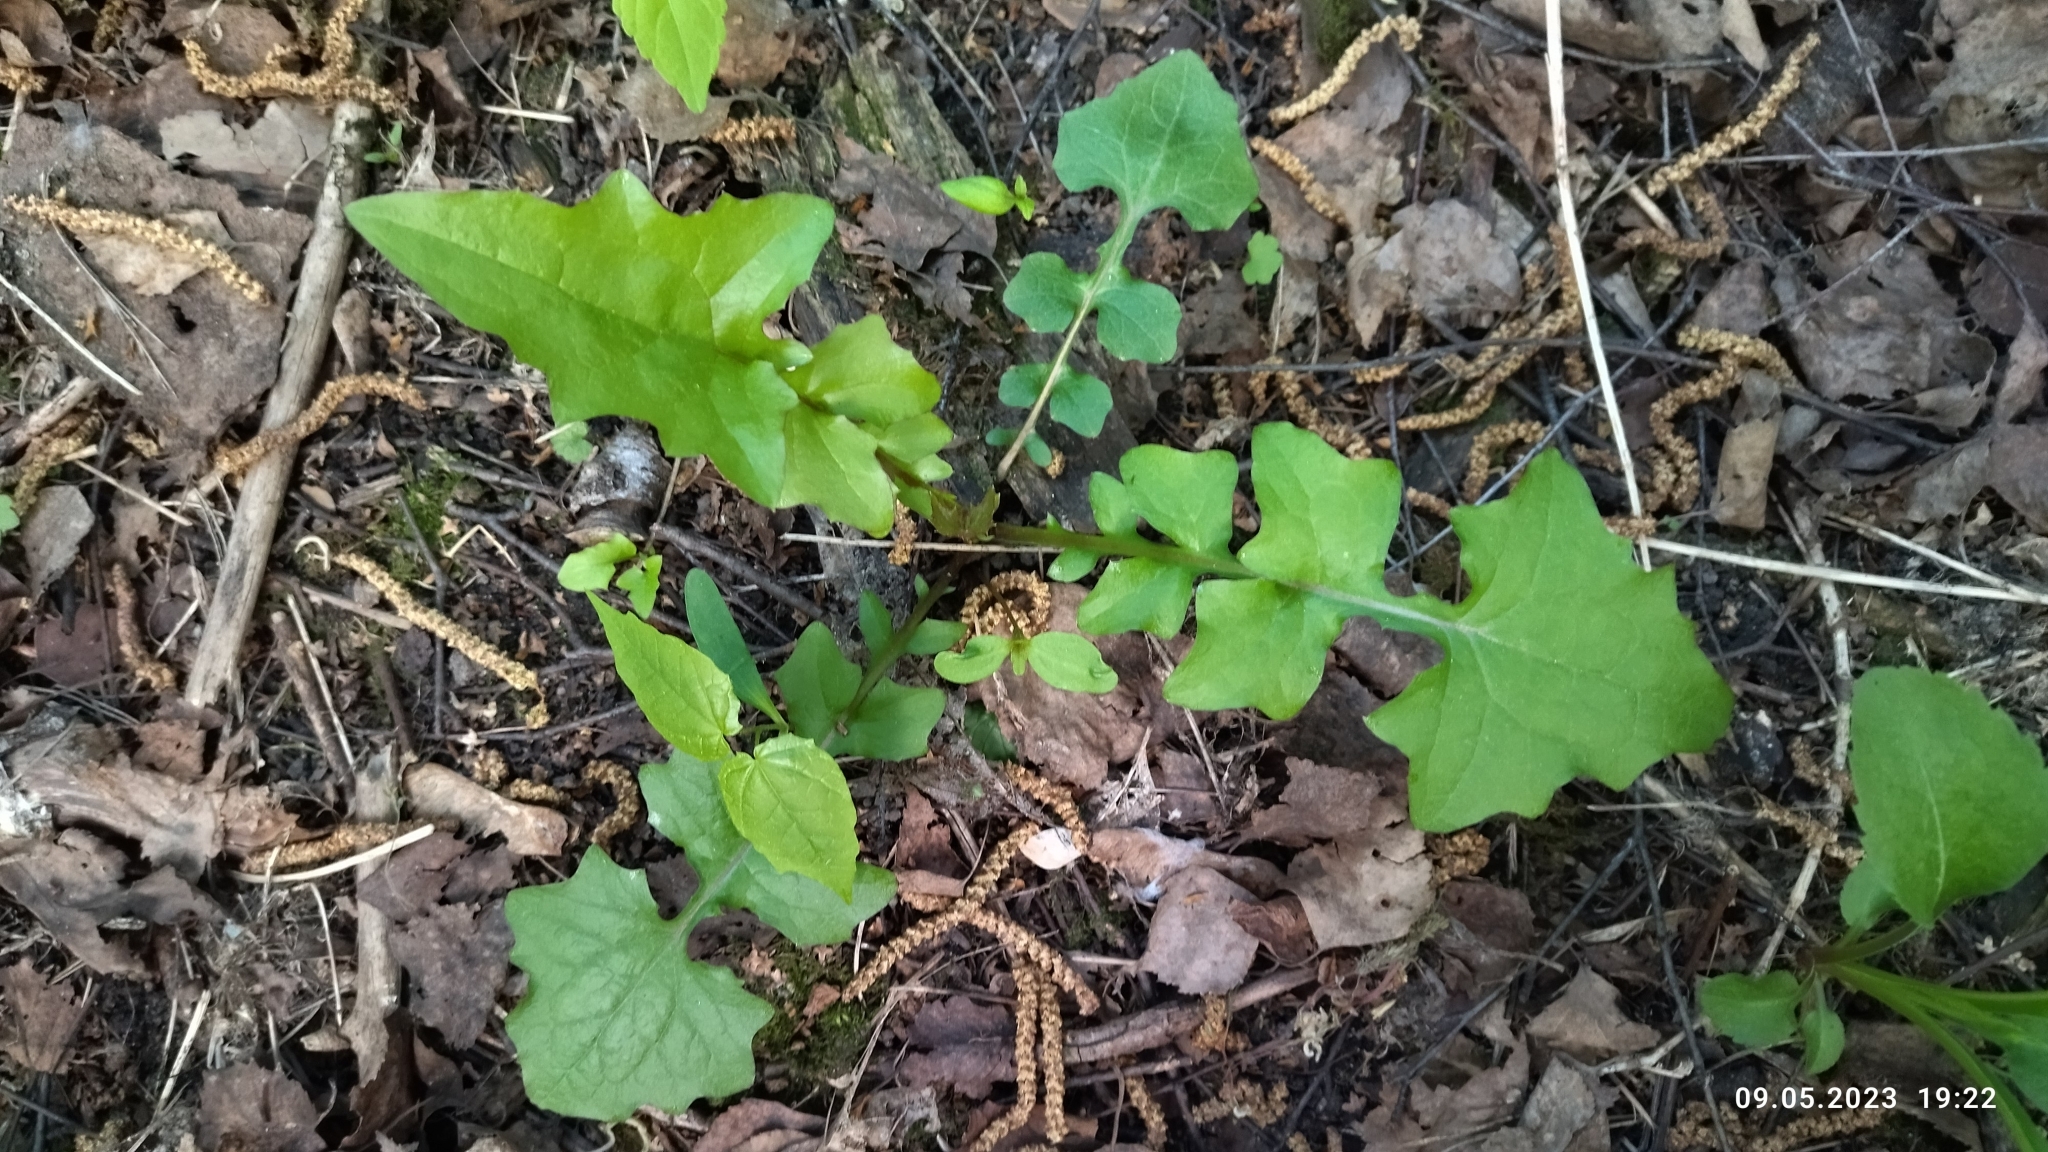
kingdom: Plantae
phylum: Tracheophyta
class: Magnoliopsida
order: Asterales
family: Asteraceae
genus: Mycelis
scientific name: Mycelis muralis
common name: Wall lettuce
